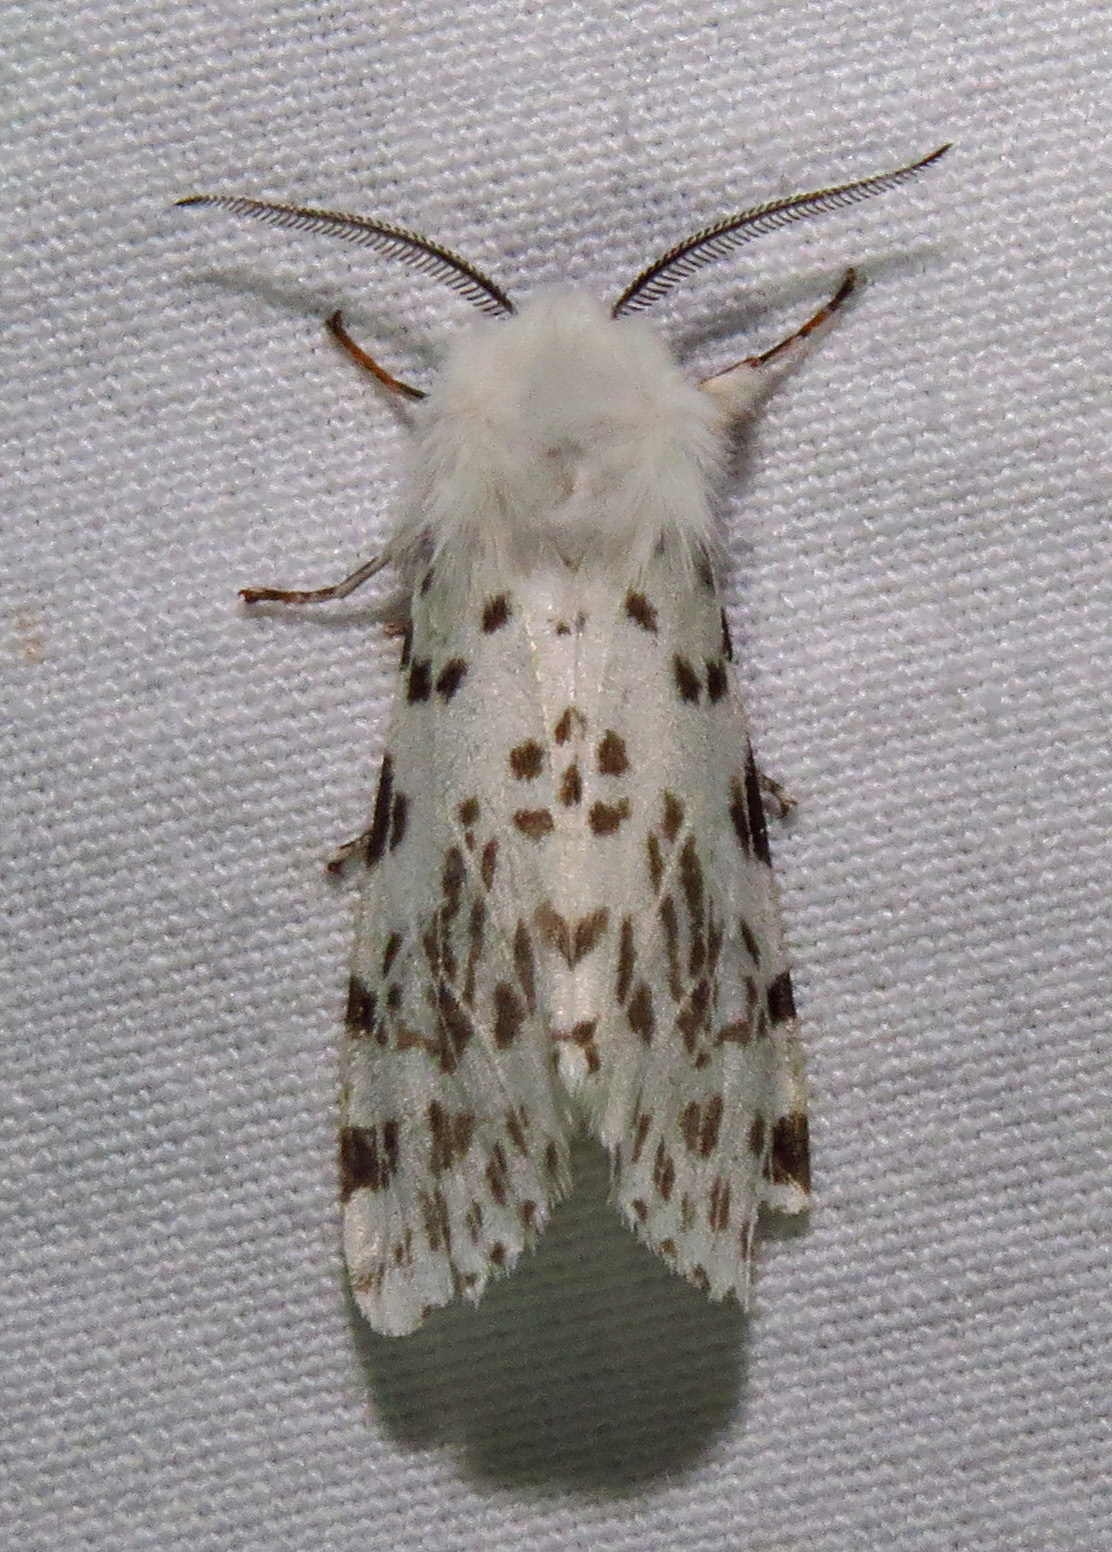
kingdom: Animalia
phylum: Arthropoda
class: Insecta
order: Lepidoptera
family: Erebidae
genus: Hyphantria
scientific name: Hyphantria cunea
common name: American white moth
